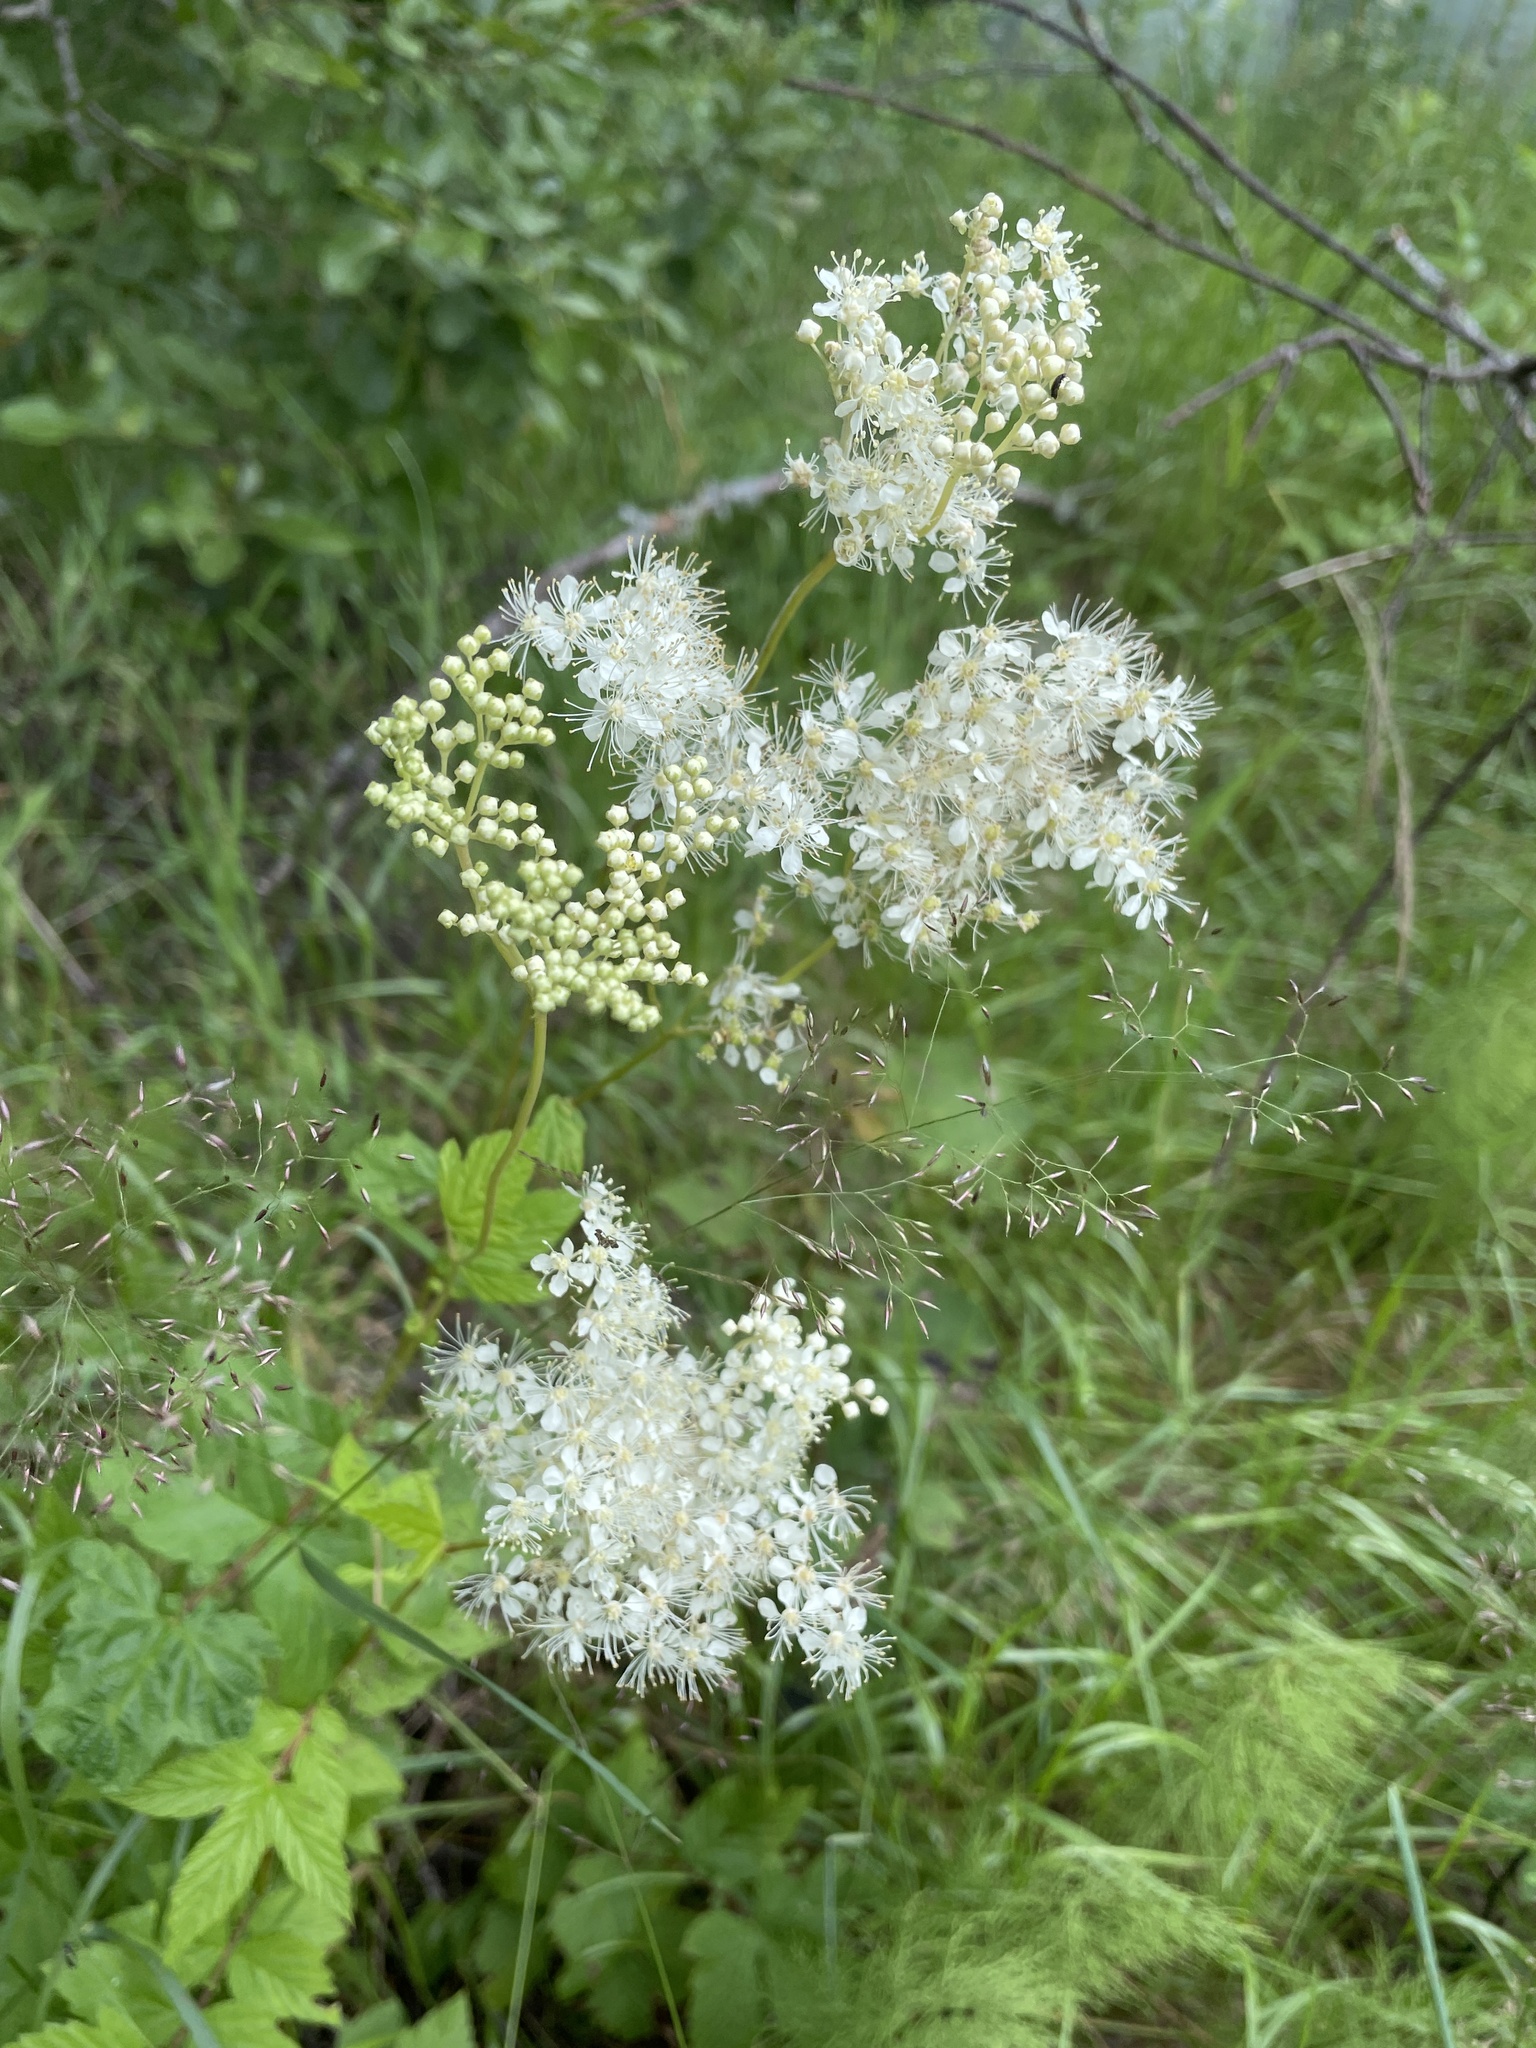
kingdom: Plantae
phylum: Tracheophyta
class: Magnoliopsida
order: Rosales
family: Rosaceae
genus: Filipendula
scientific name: Filipendula ulmaria
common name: Meadowsweet
